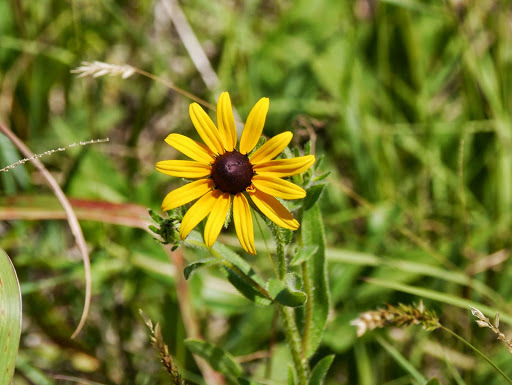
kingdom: Plantae
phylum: Tracheophyta
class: Magnoliopsida
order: Asterales
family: Asteraceae
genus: Rudbeckia
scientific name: Rudbeckia hirta
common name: Black-eyed-susan
